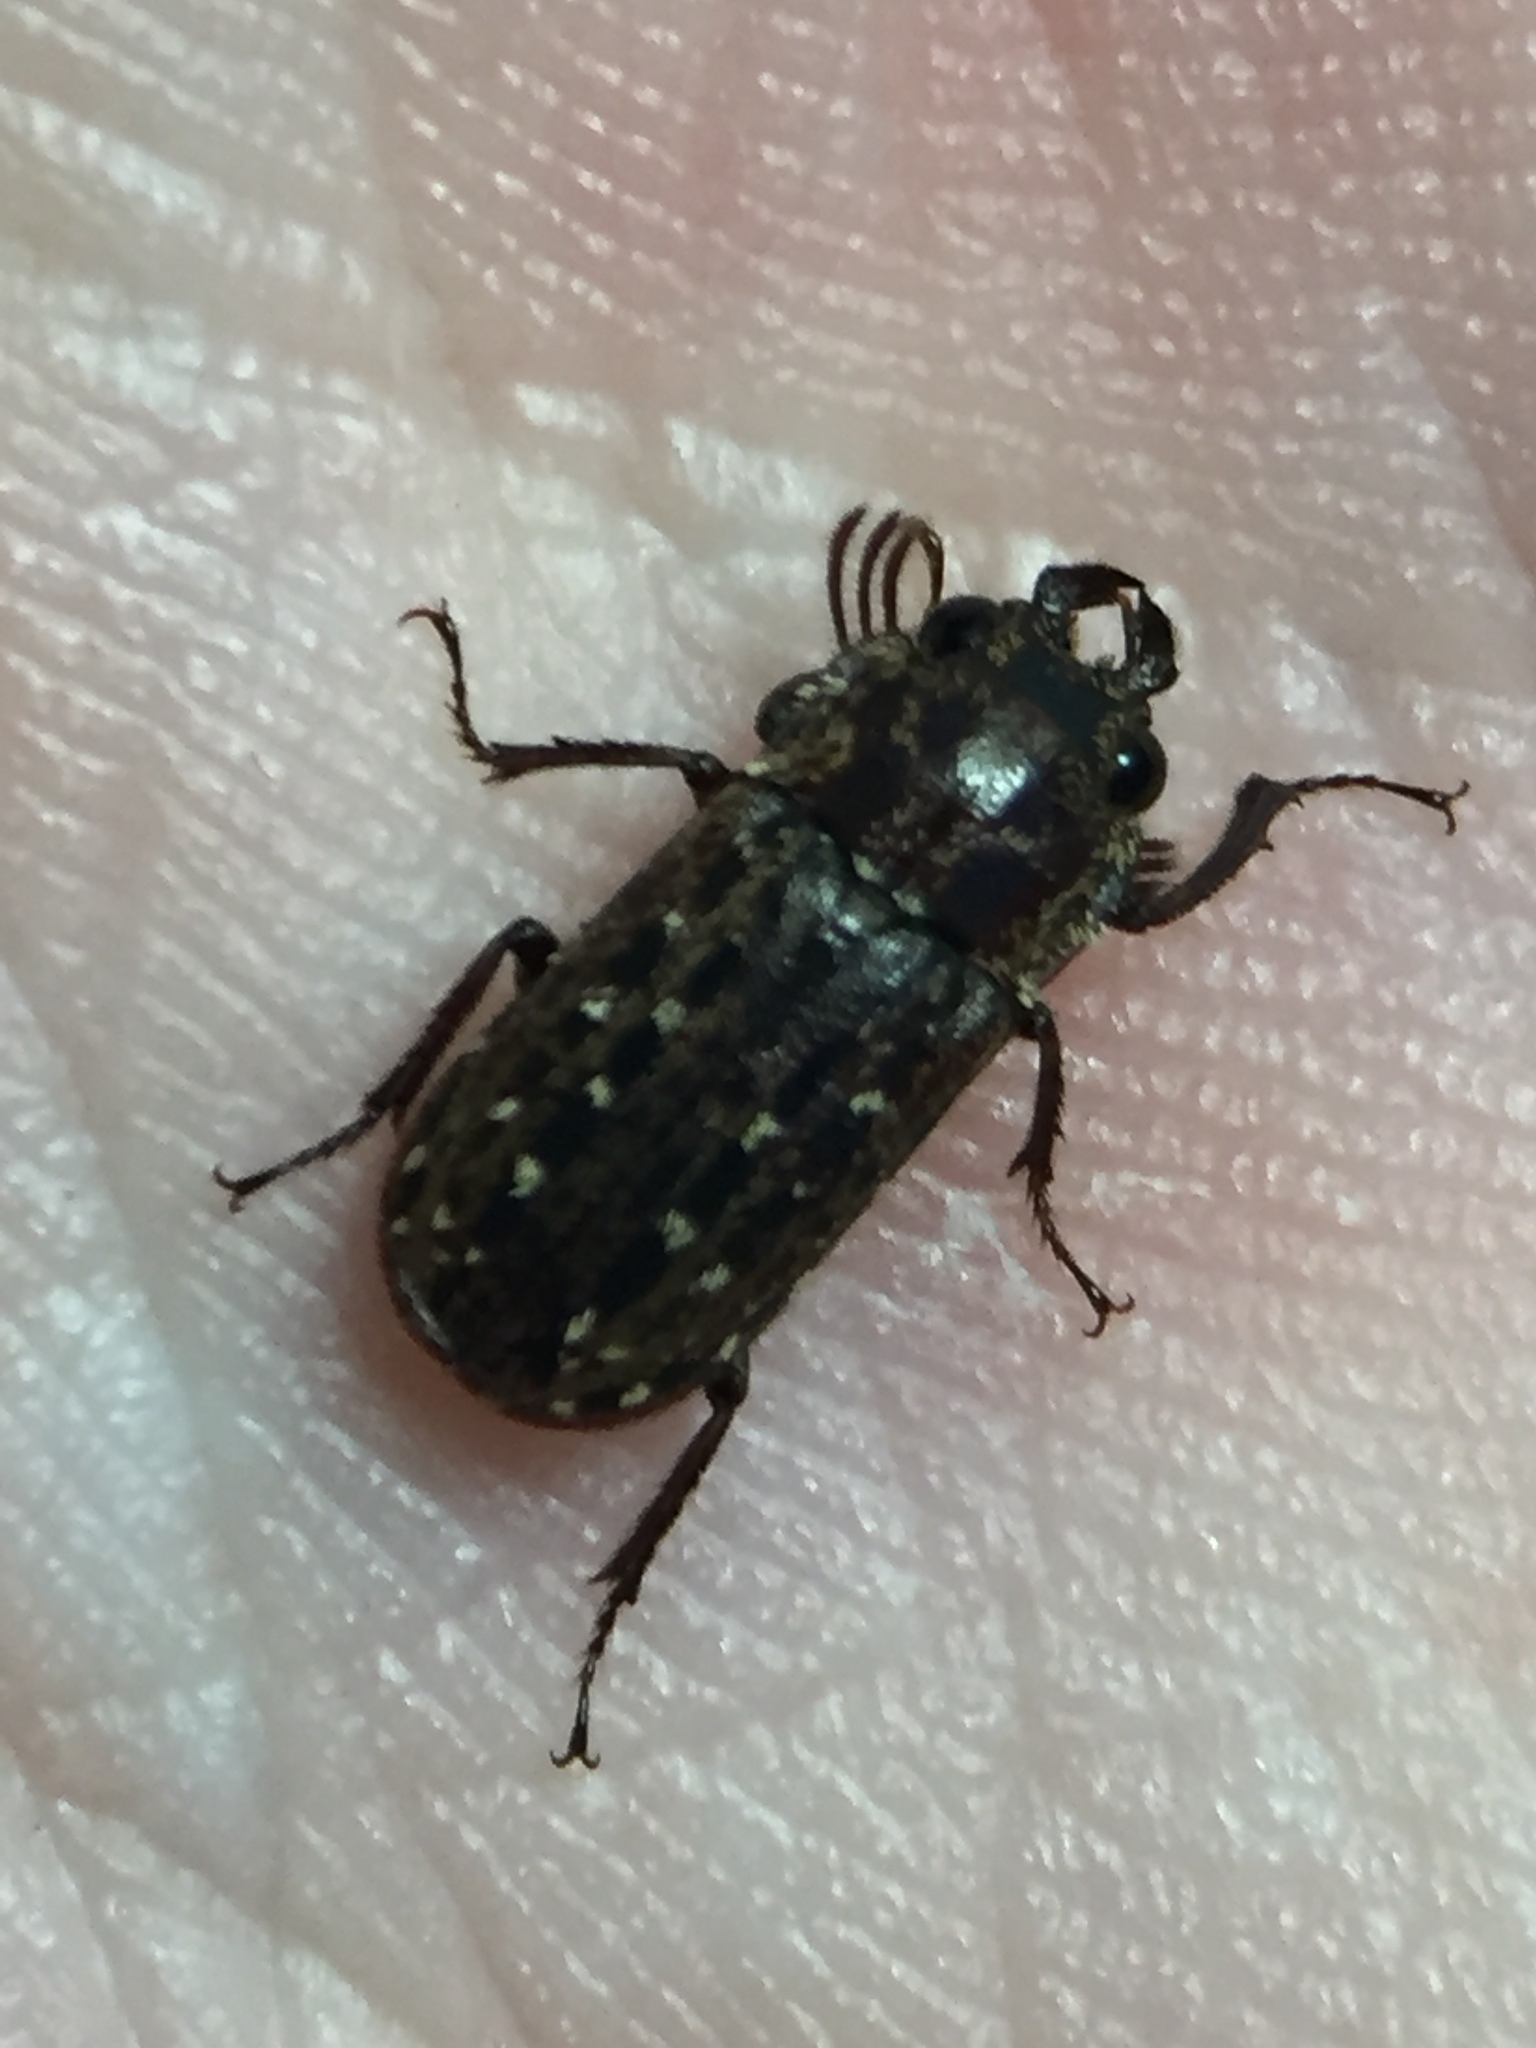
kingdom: Animalia
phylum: Arthropoda
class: Insecta
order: Coleoptera
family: Lucanidae
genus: Mitophyllus
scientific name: Mitophyllus arcuatus
